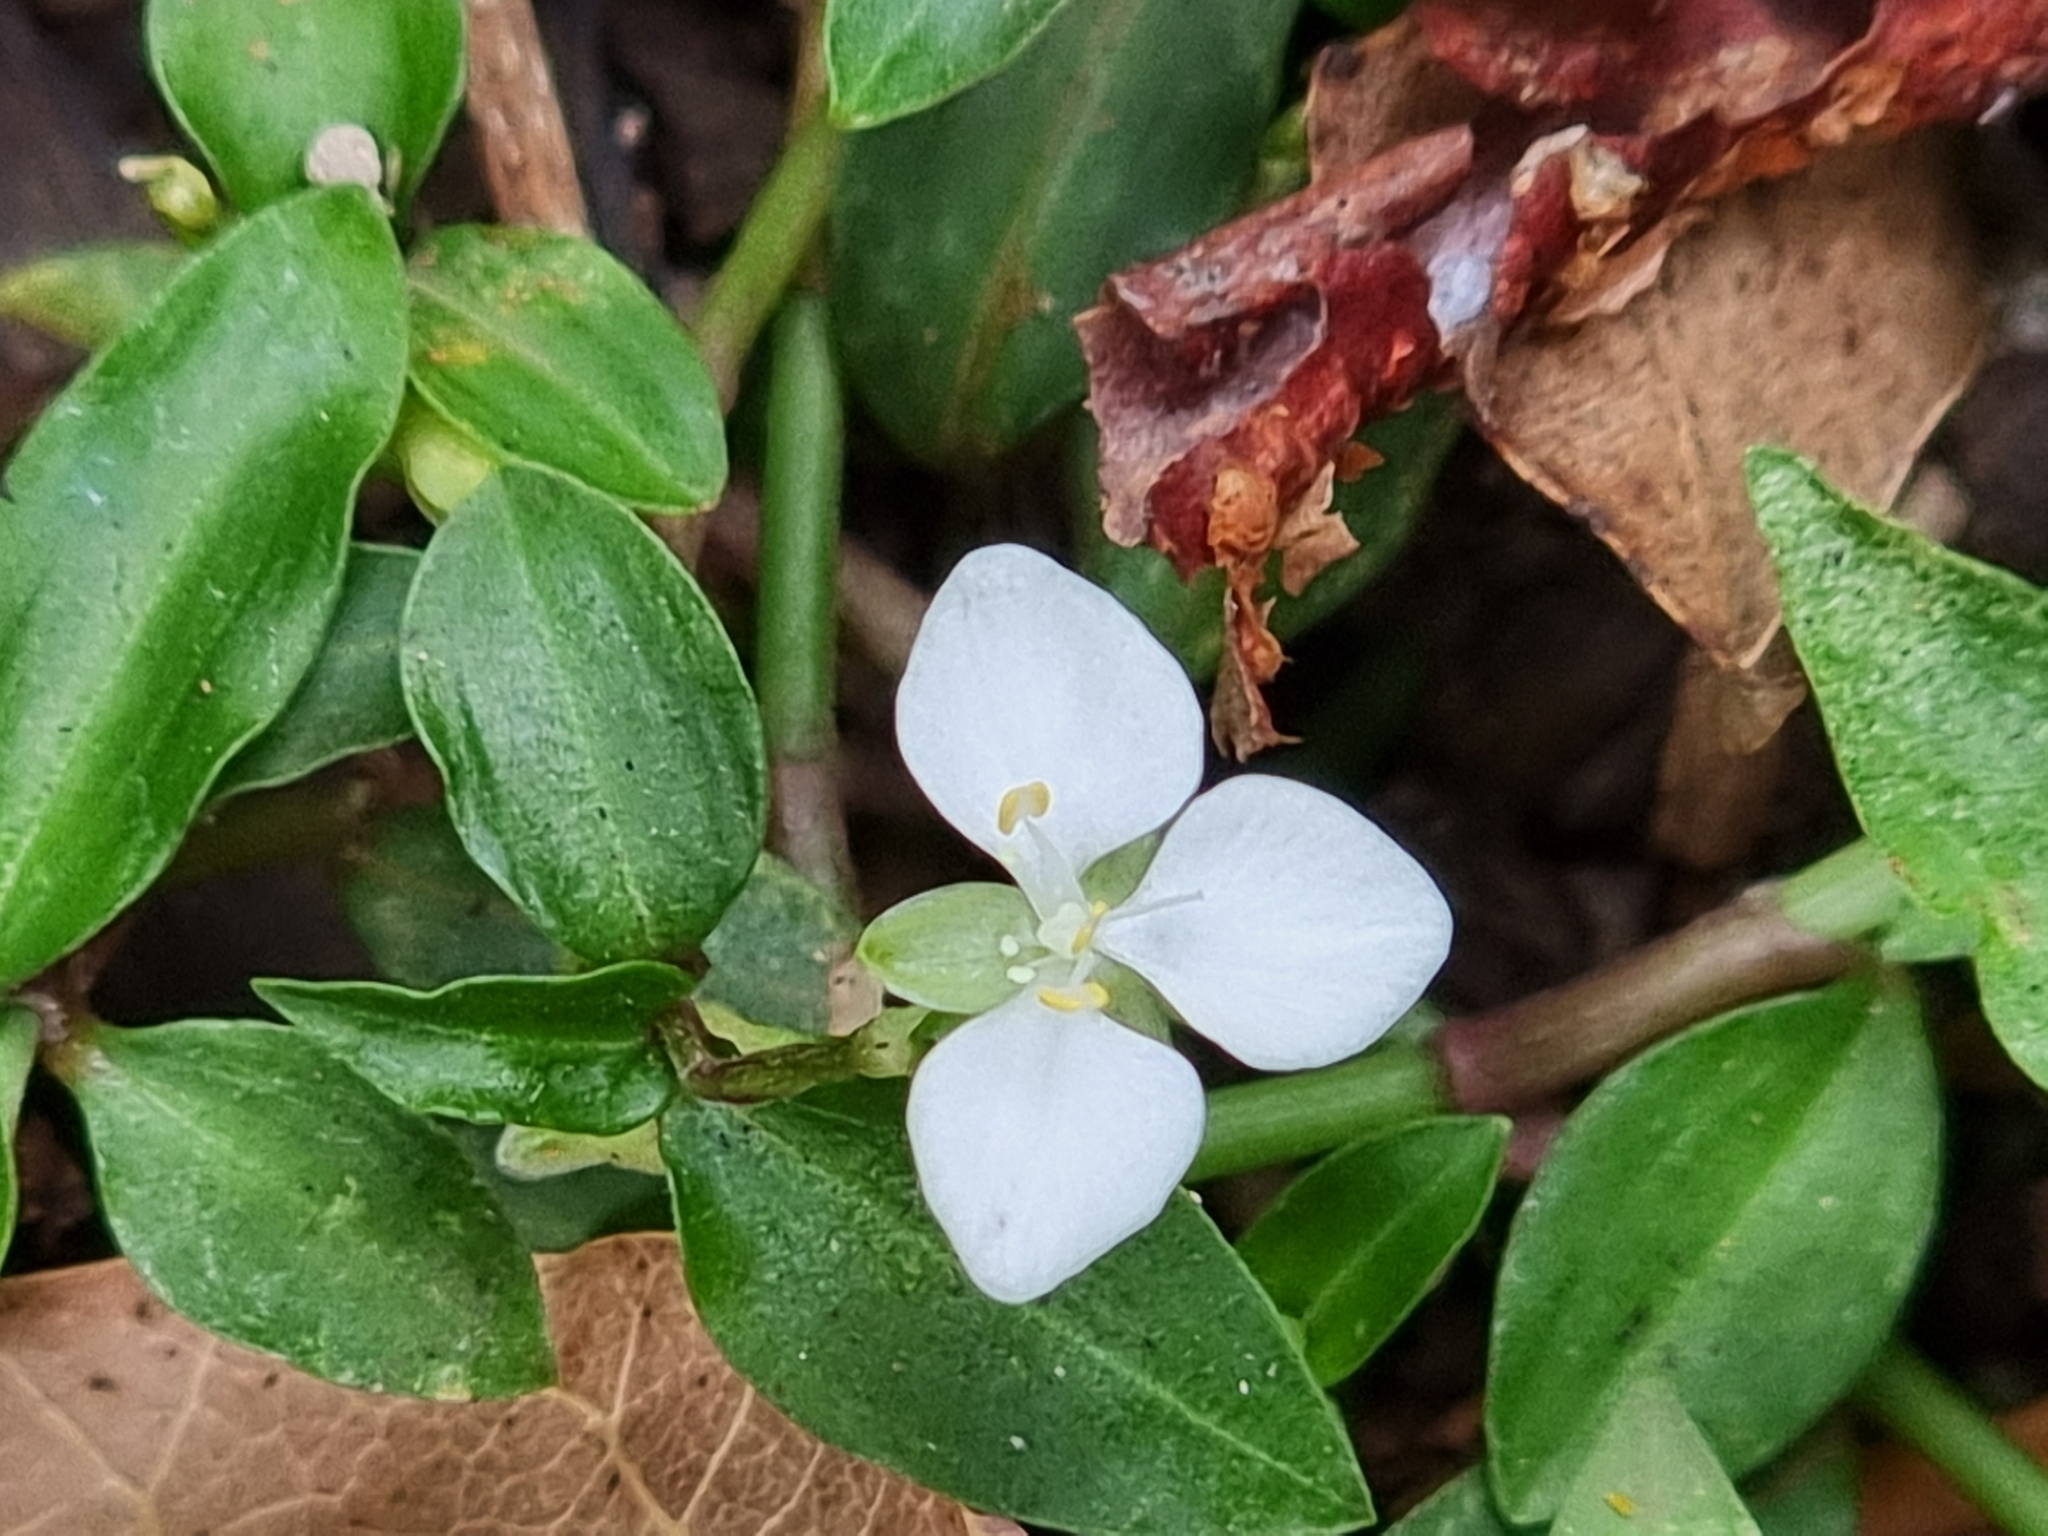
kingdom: Plantae
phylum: Tracheophyta
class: Liliopsida
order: Commelinales
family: Commelinaceae
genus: Aneilema
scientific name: Aneilema biflorum
